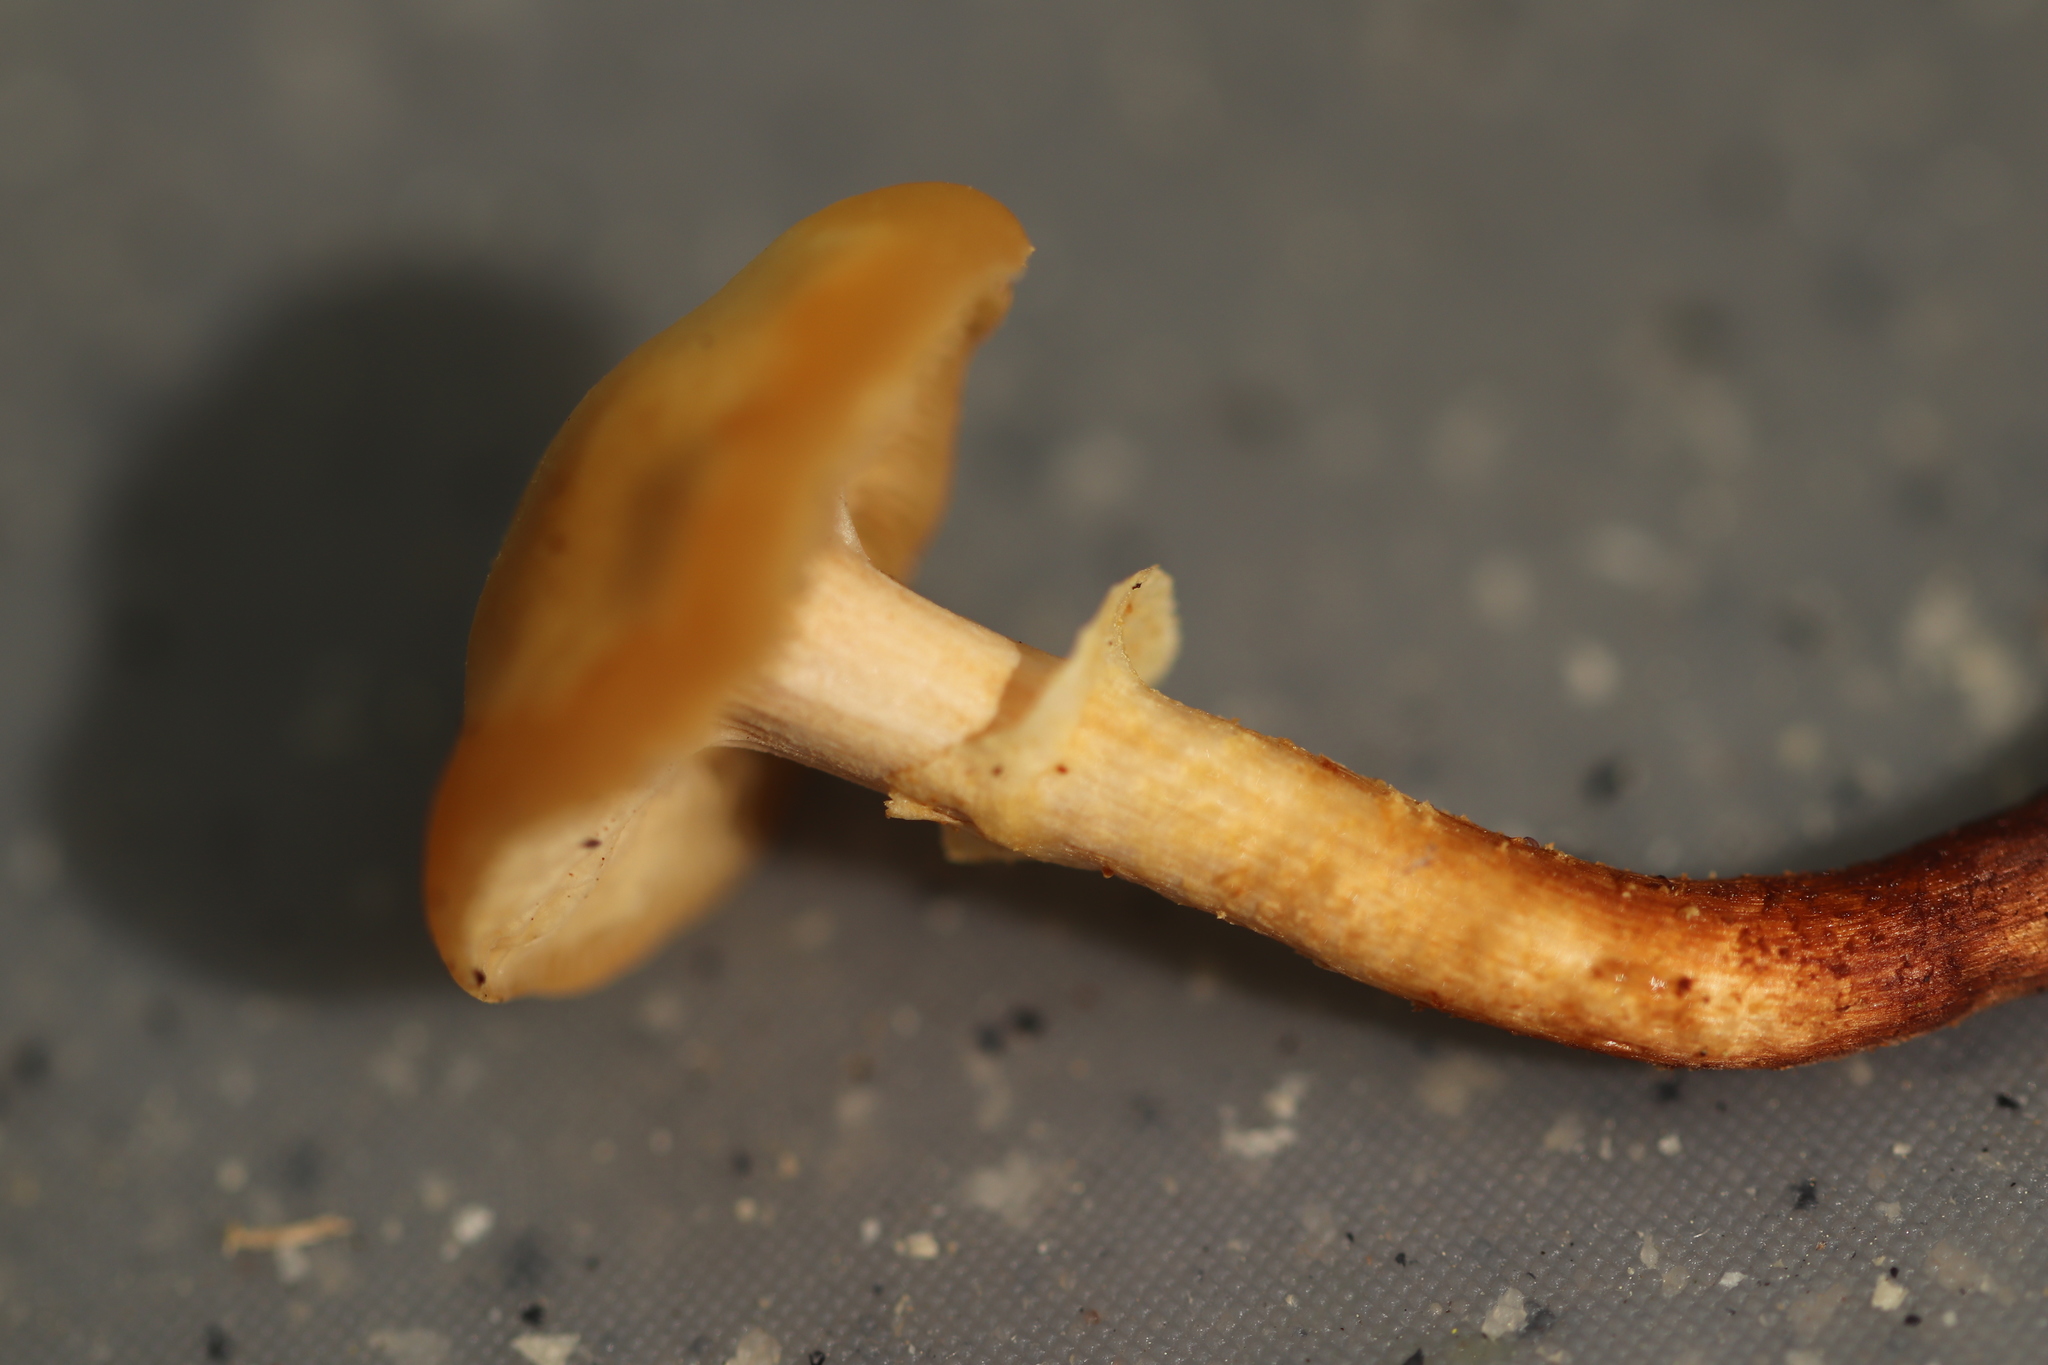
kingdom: Fungi
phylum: Basidiomycota
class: Agaricomycetes
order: Agaricales
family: Strophariaceae
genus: Kuehneromyces
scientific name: Kuehneromyces mutabilis
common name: Sheathed woodtuft
